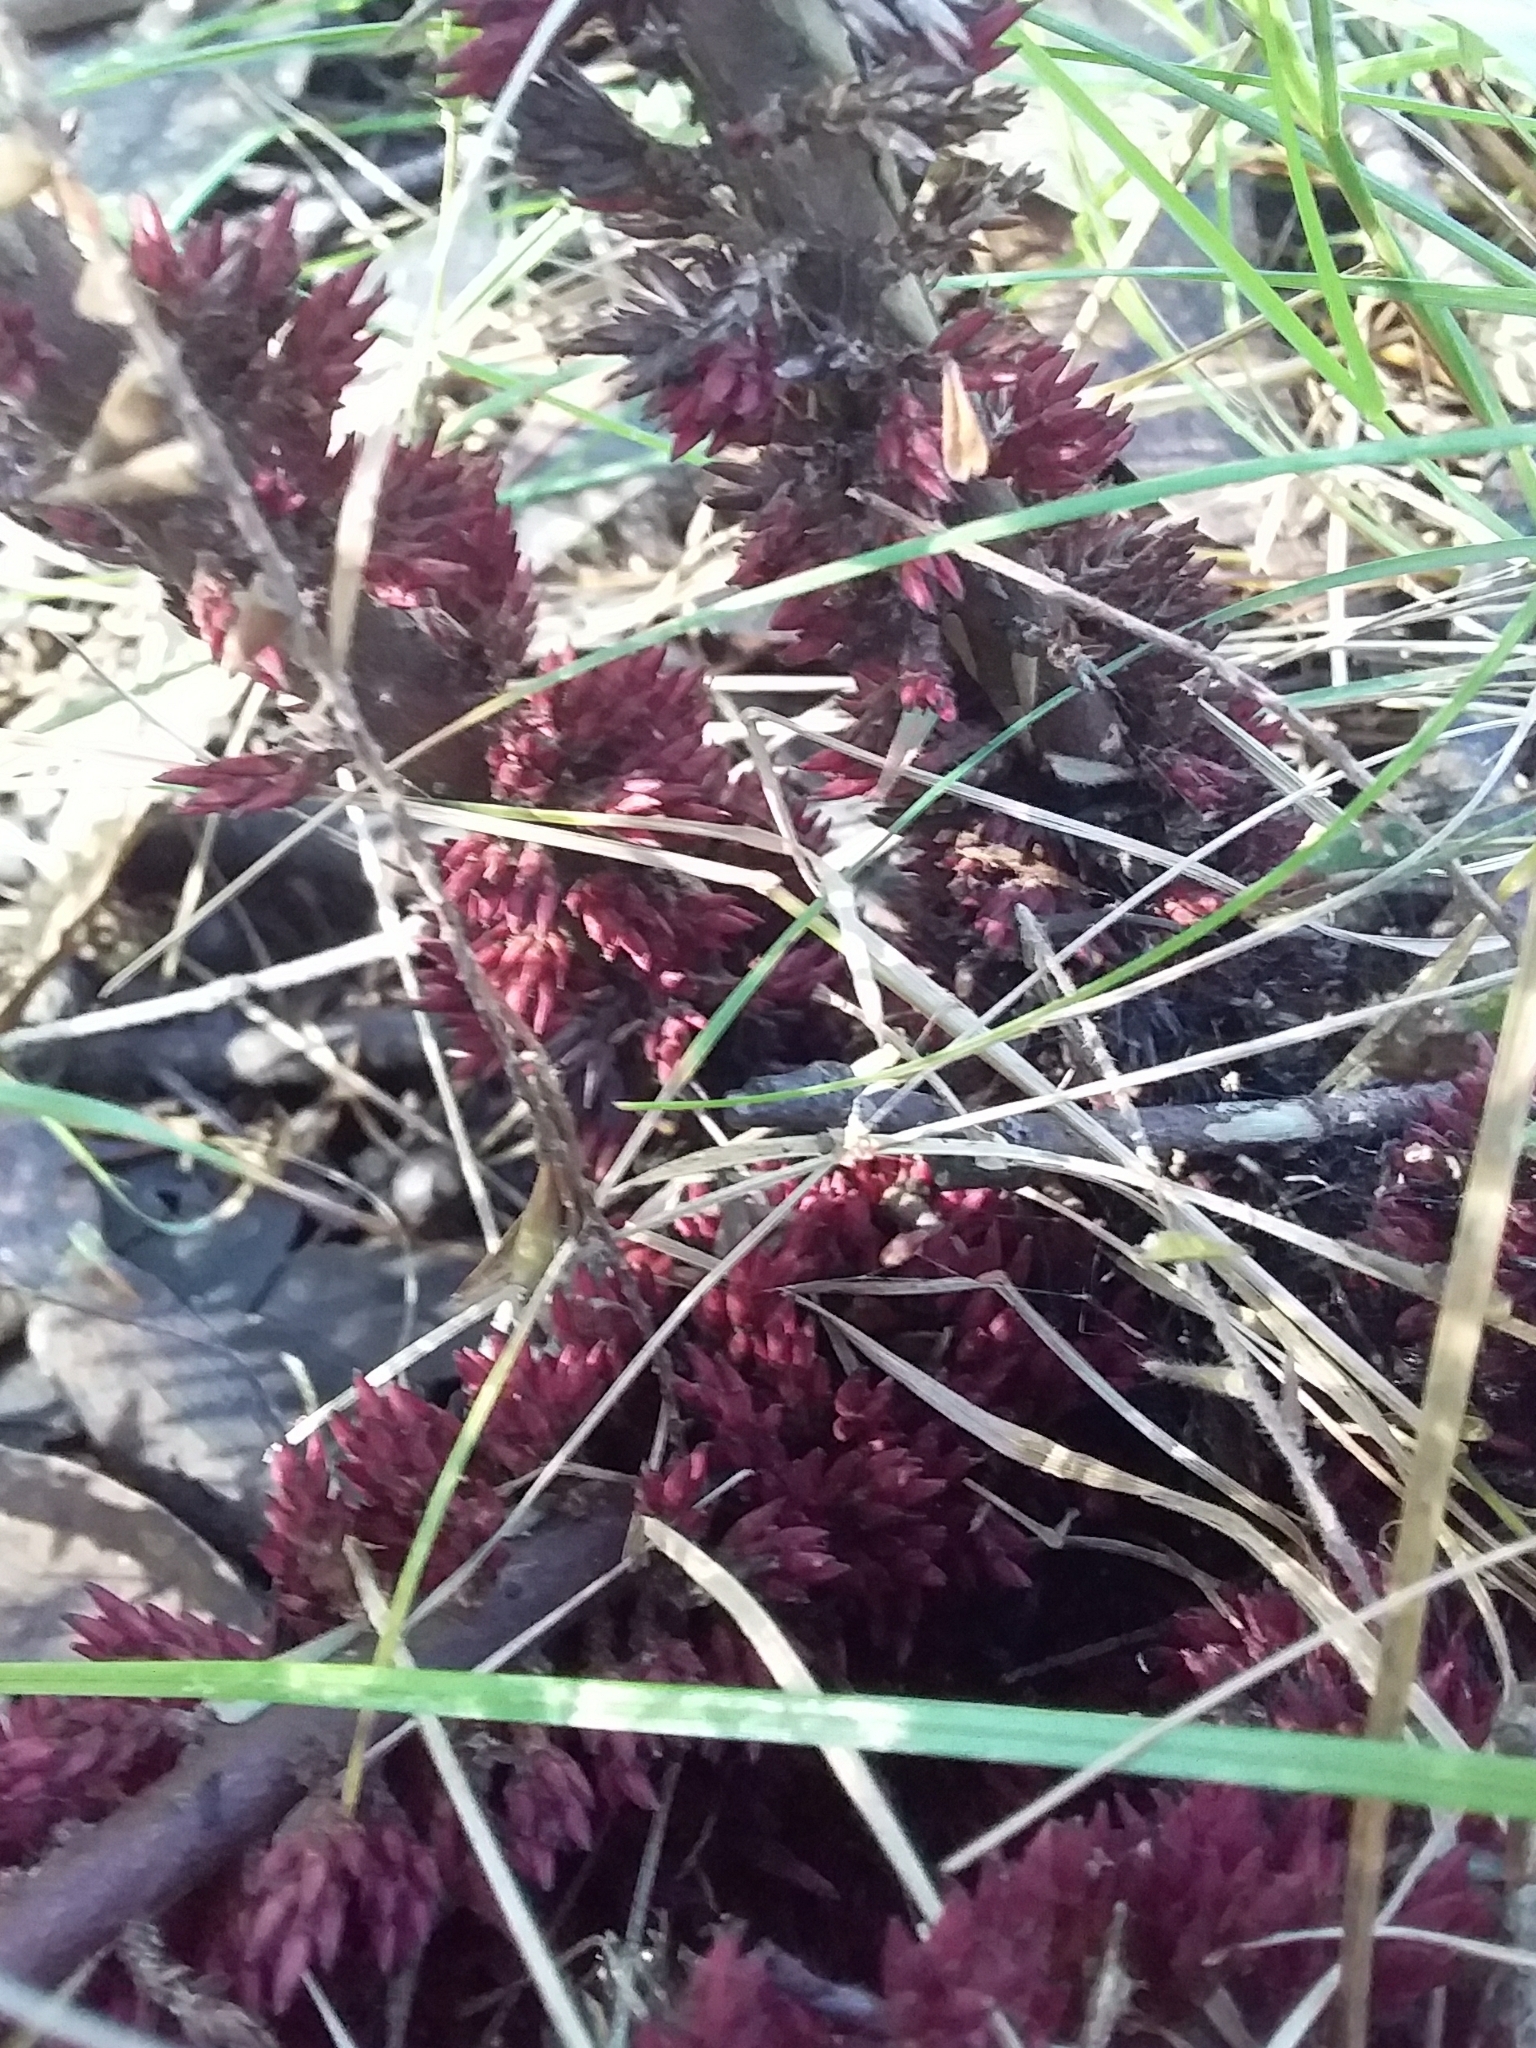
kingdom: Plantae
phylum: Tracheophyta
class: Magnoliopsida
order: Ericales
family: Ericaceae
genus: Acrotriche
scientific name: Acrotriche fasciculiflora
